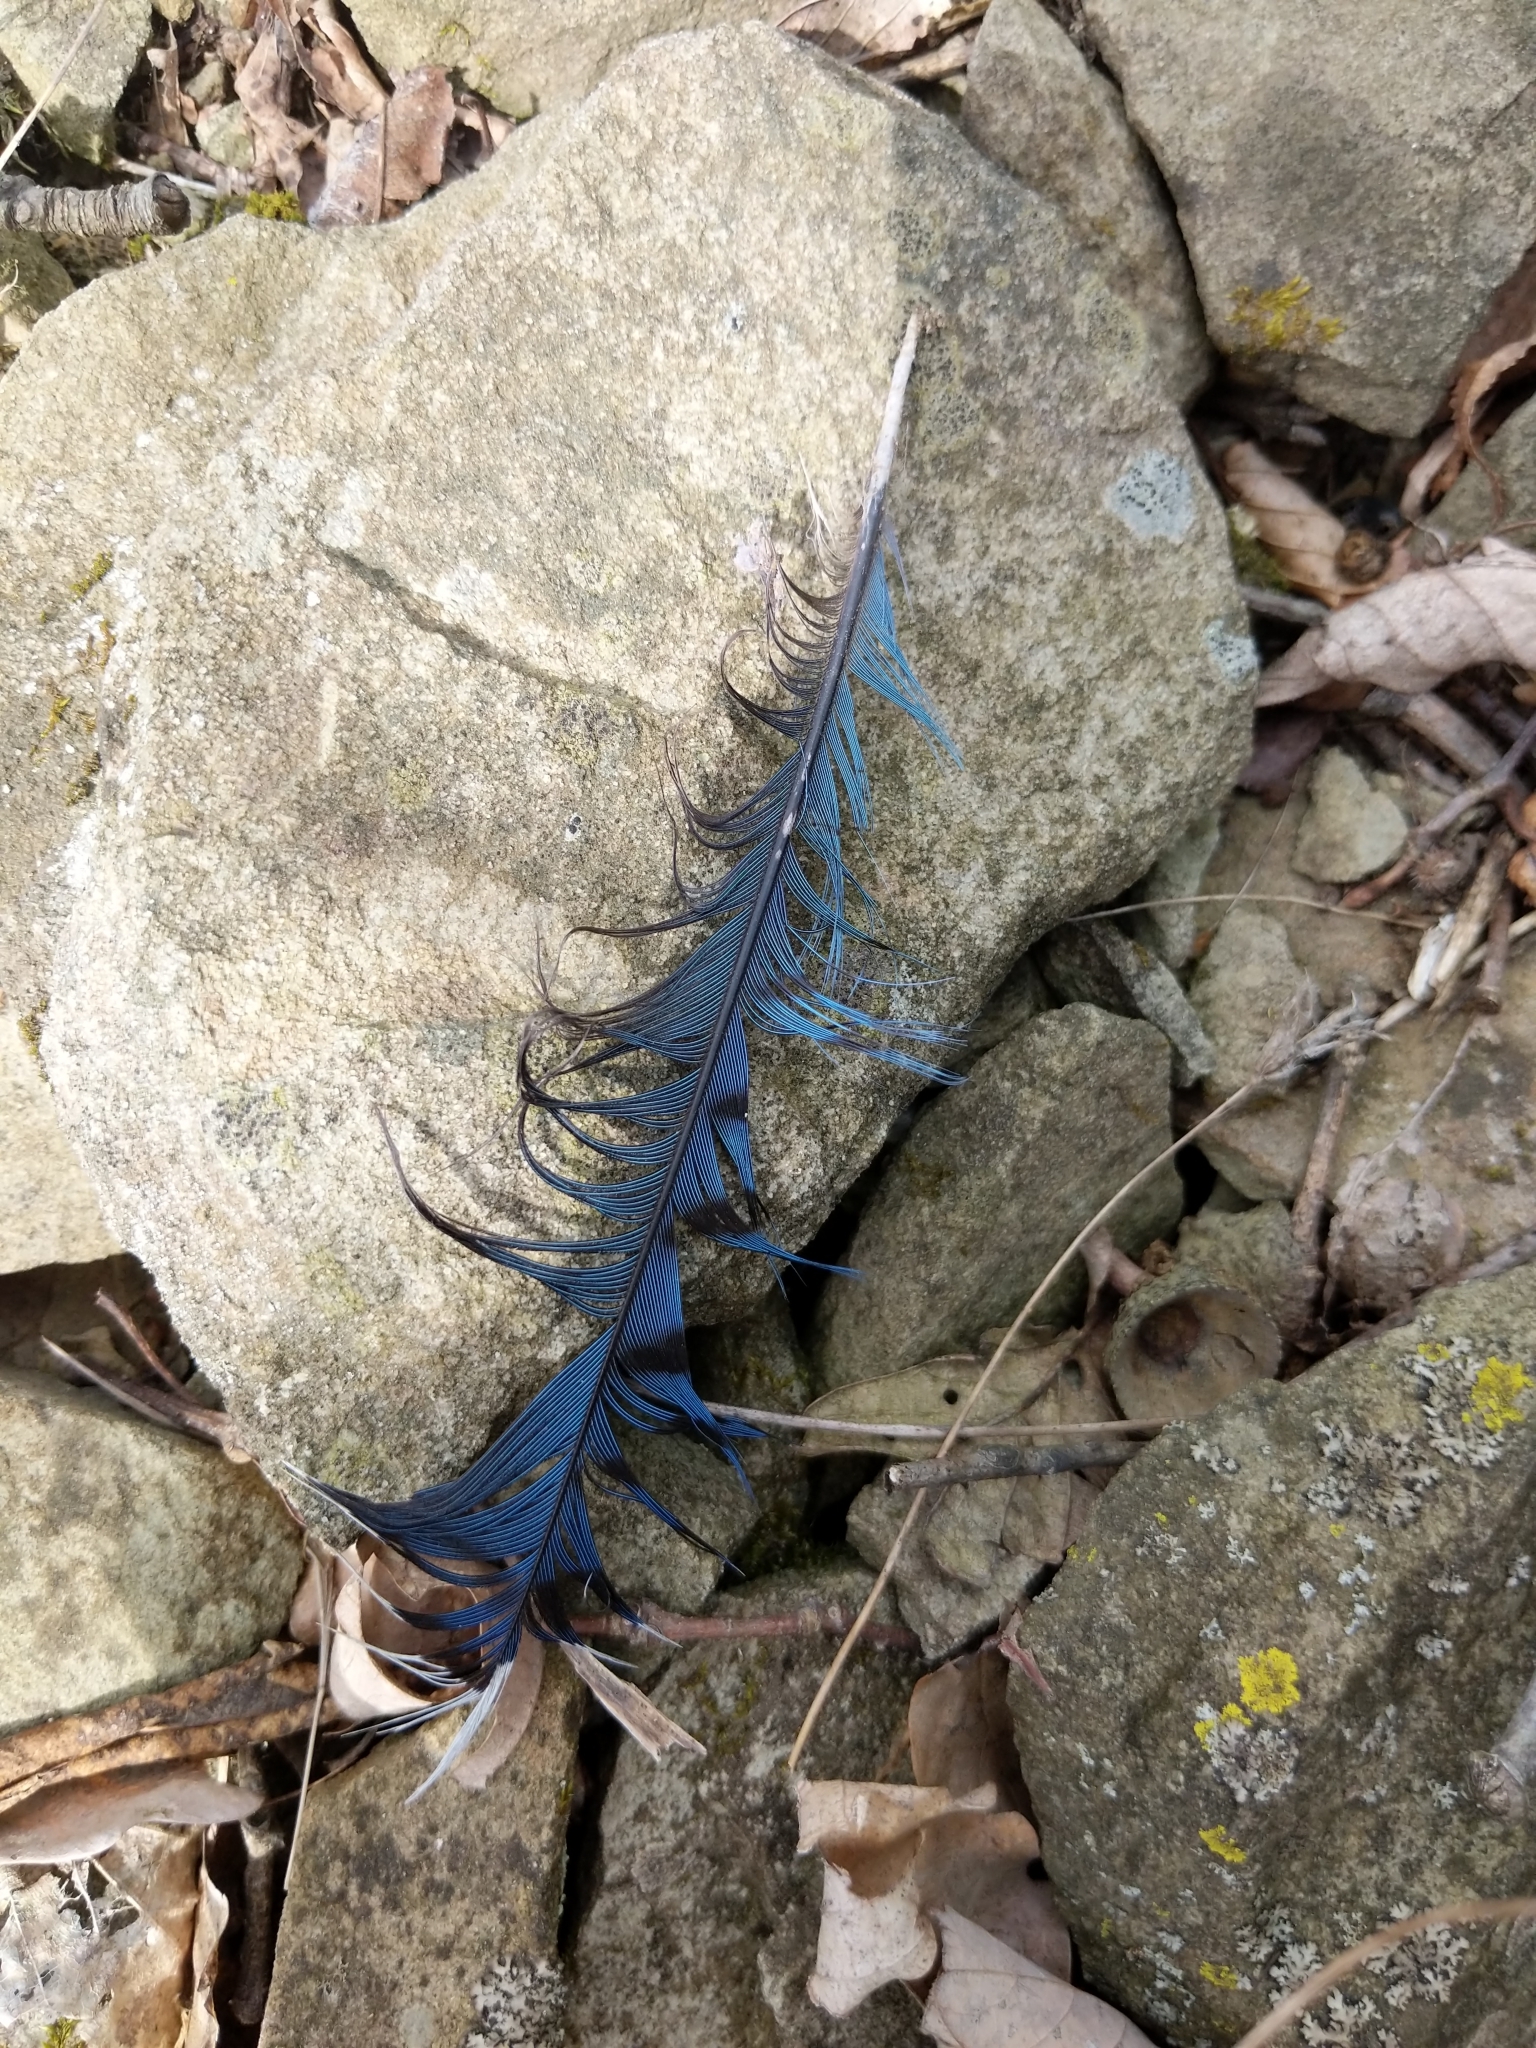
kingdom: Animalia
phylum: Chordata
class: Aves
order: Passeriformes
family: Corvidae
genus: Cyanocitta
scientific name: Cyanocitta cristata
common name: Blue jay
